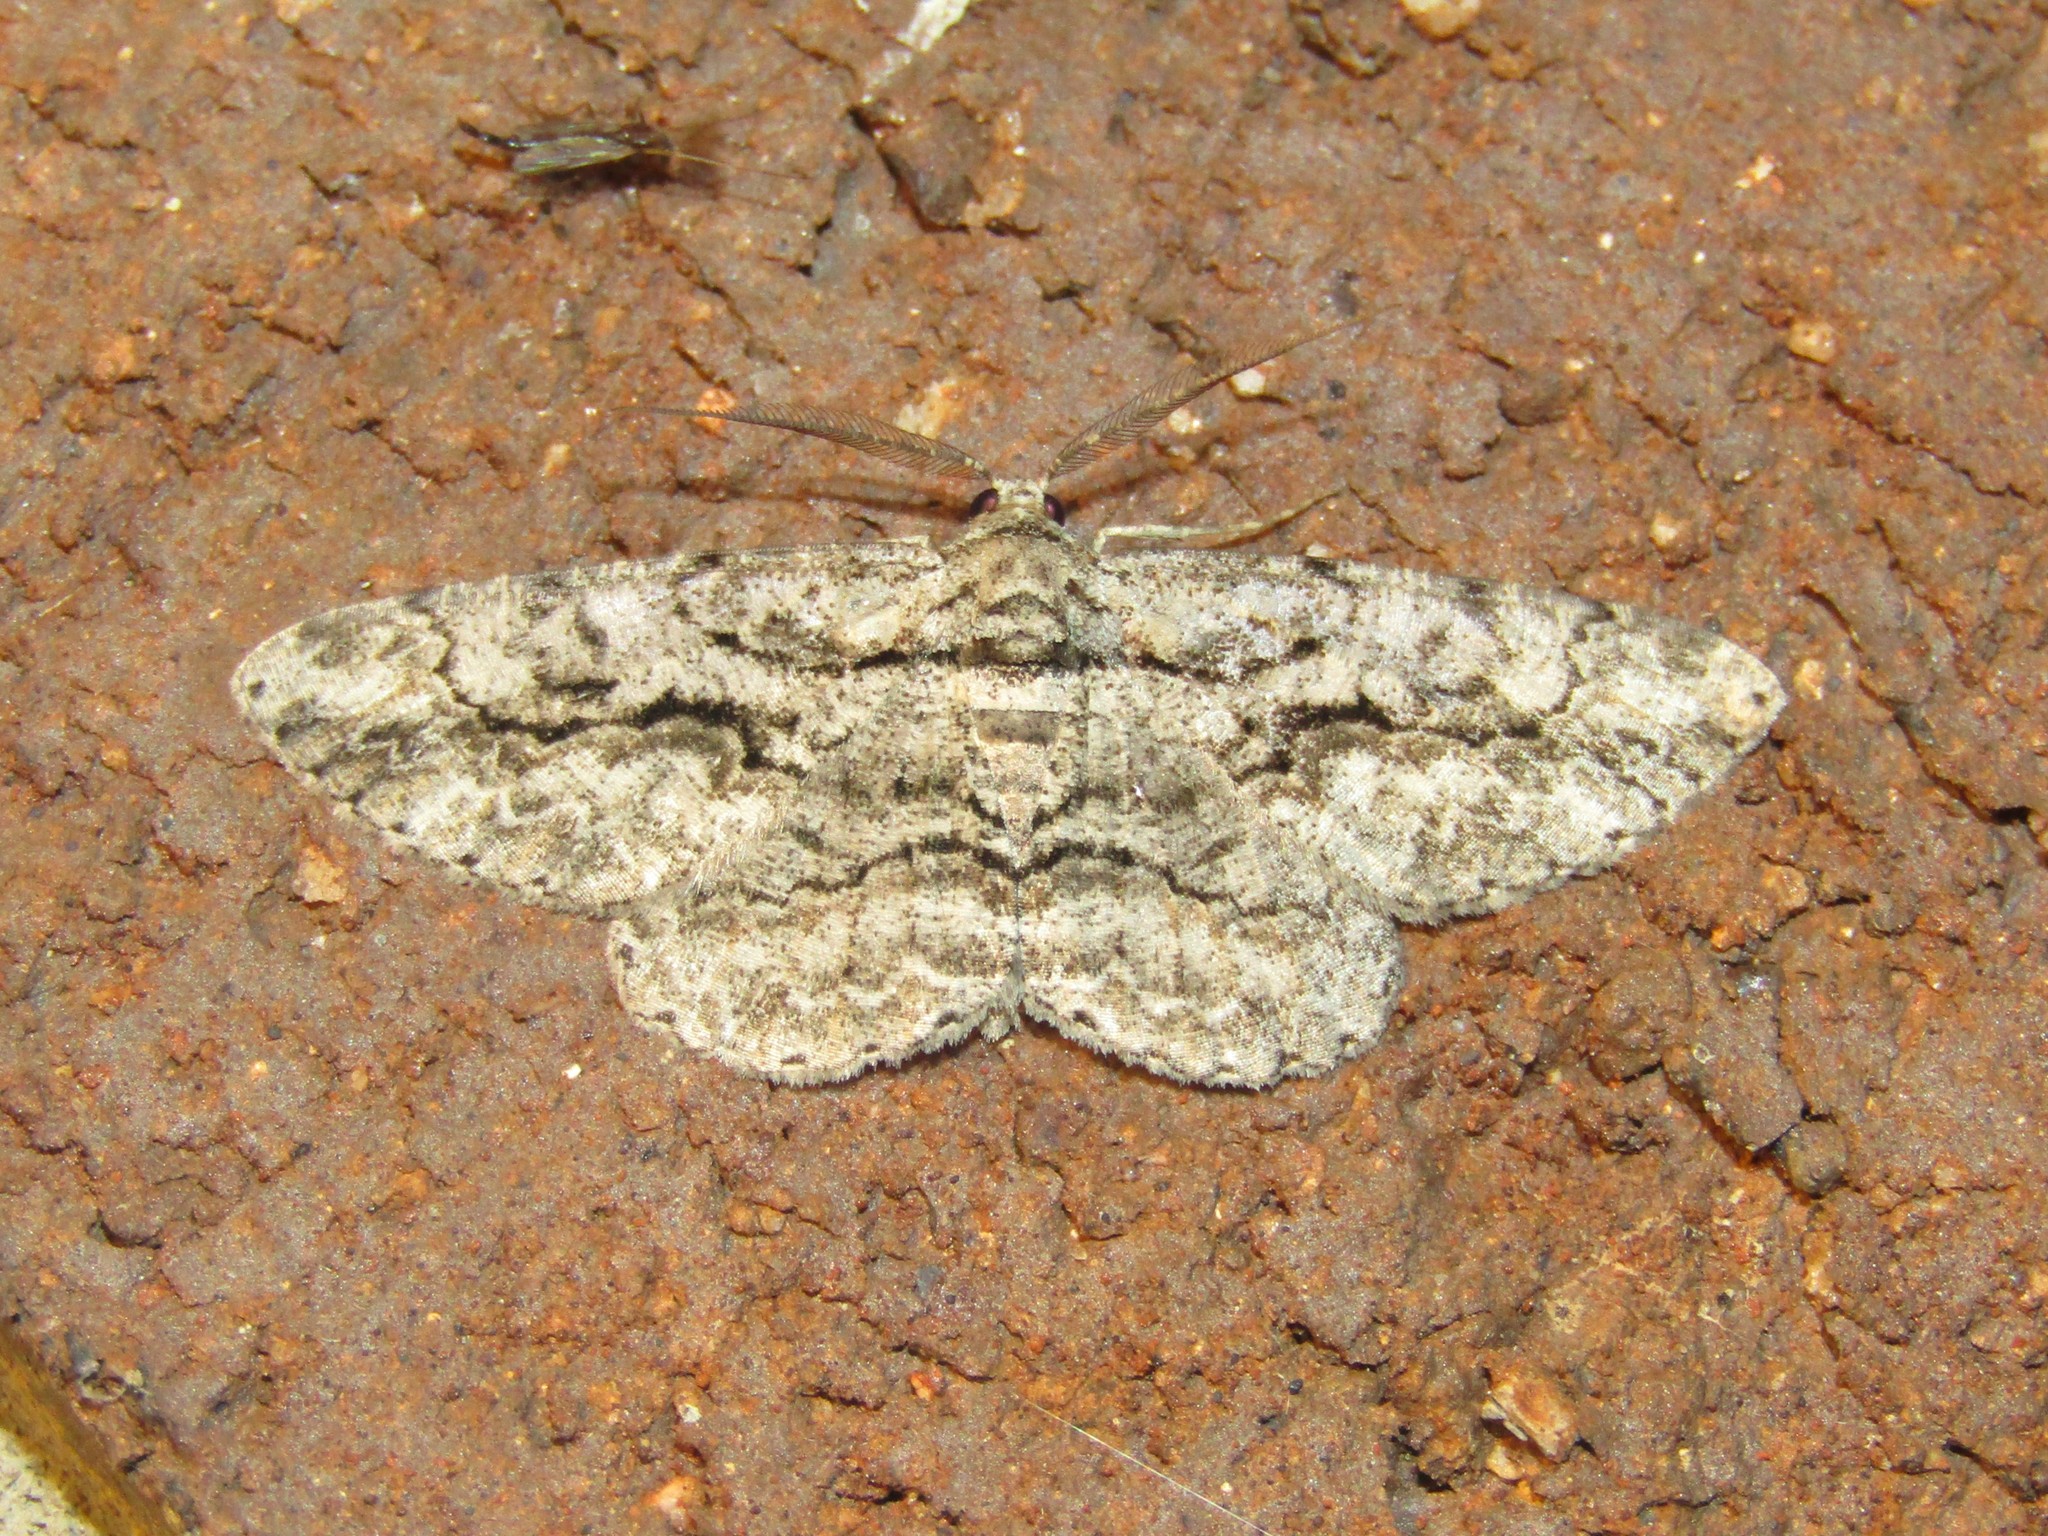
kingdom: Animalia
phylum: Arthropoda
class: Insecta
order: Lepidoptera
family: Geometridae
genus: Anavitrinella
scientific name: Anavitrinella pampinaria
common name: Common gray
